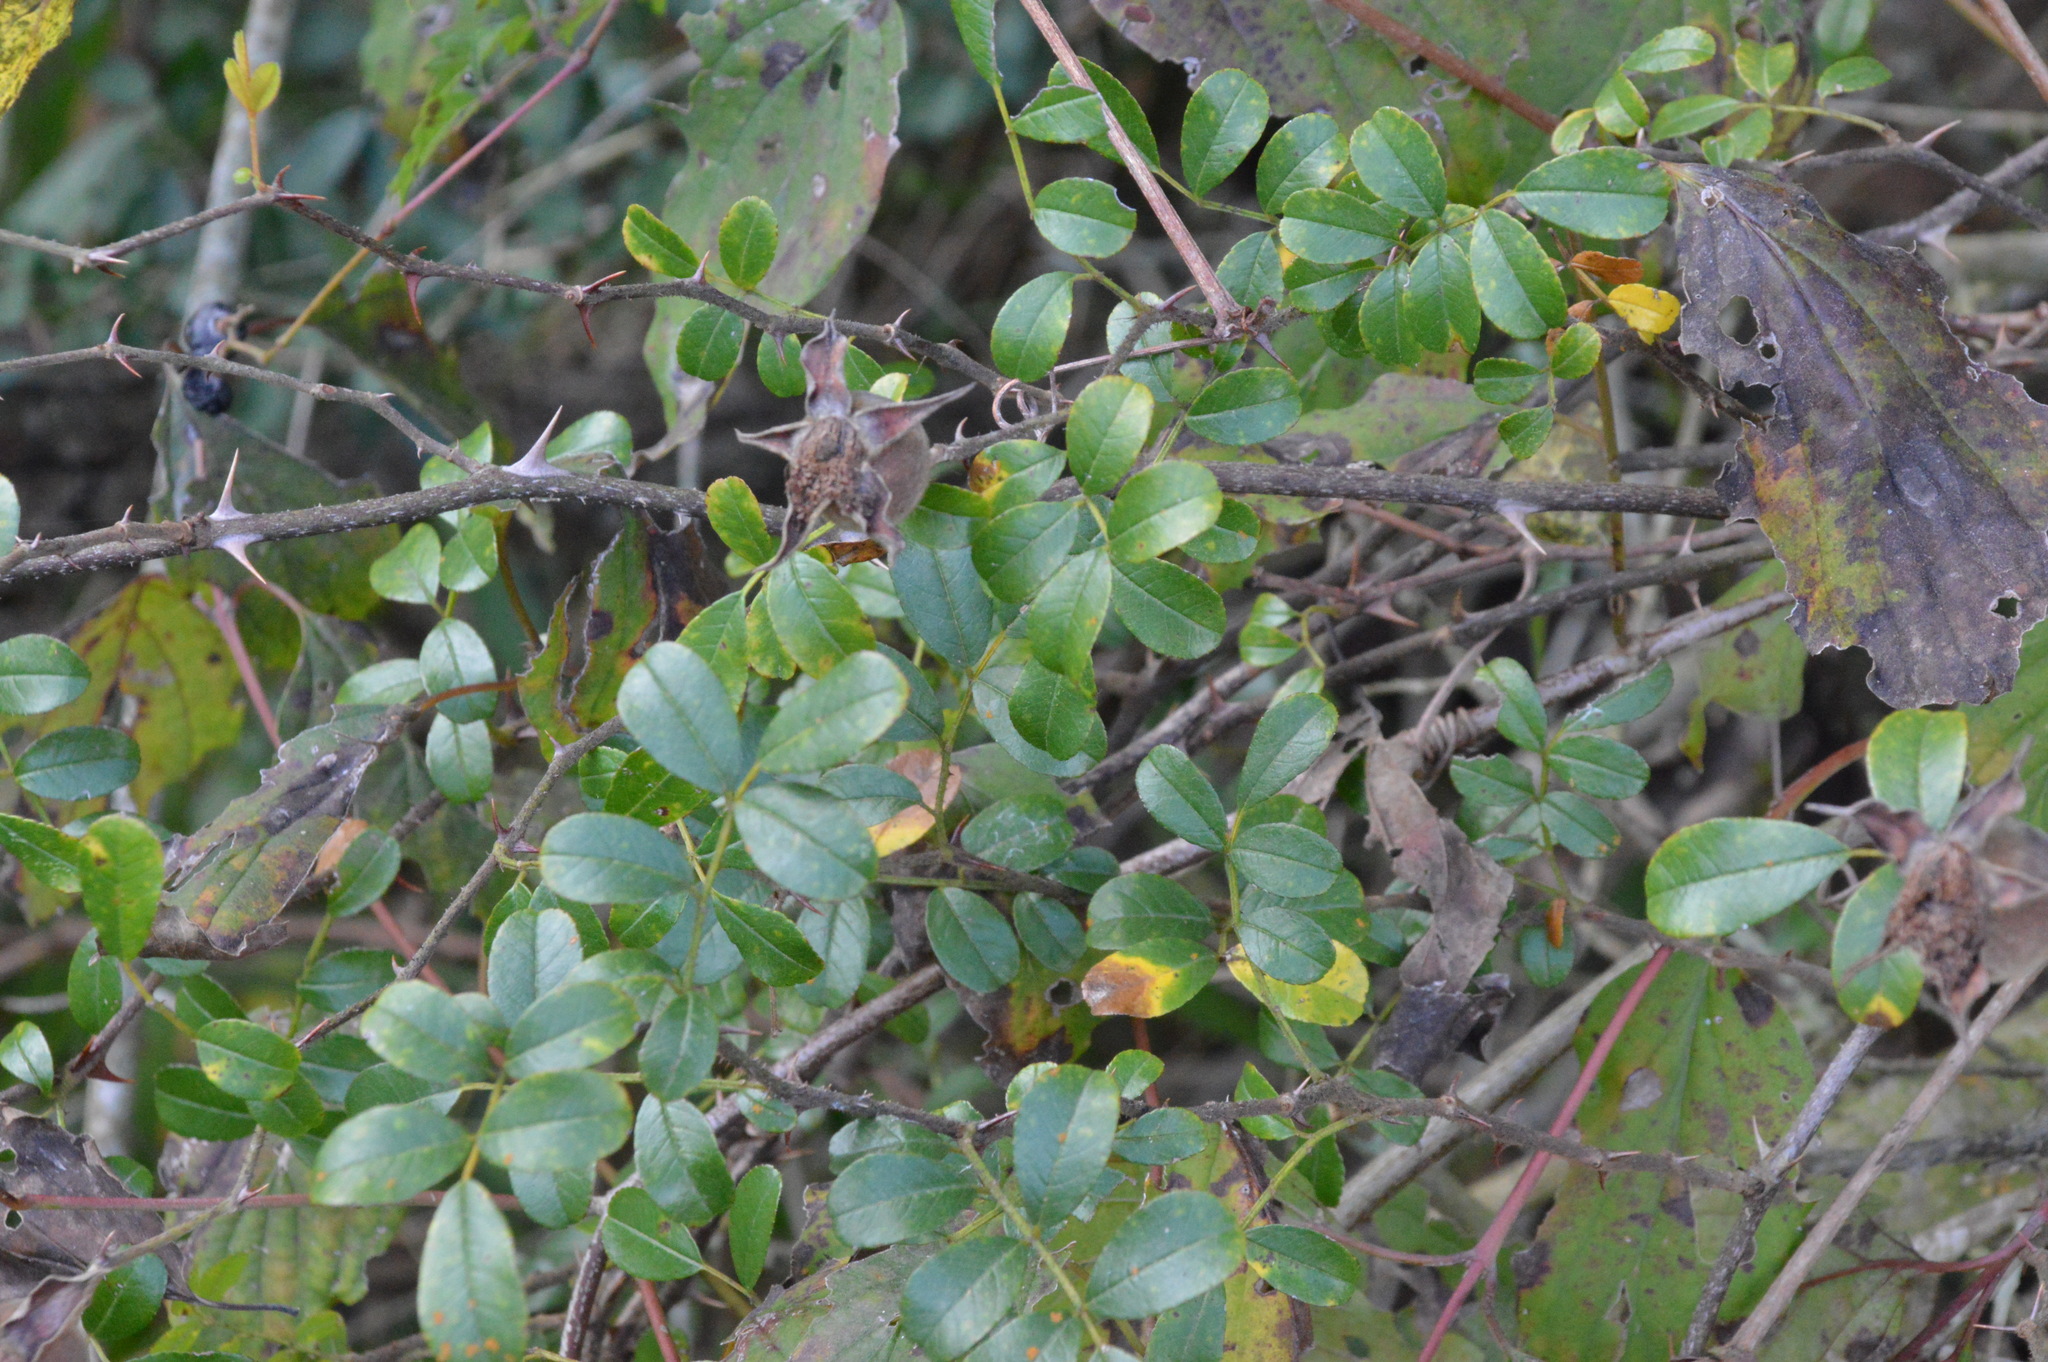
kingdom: Plantae
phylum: Tracheophyta
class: Magnoliopsida
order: Rosales
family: Rosaceae
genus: Rosa
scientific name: Rosa bracteata
